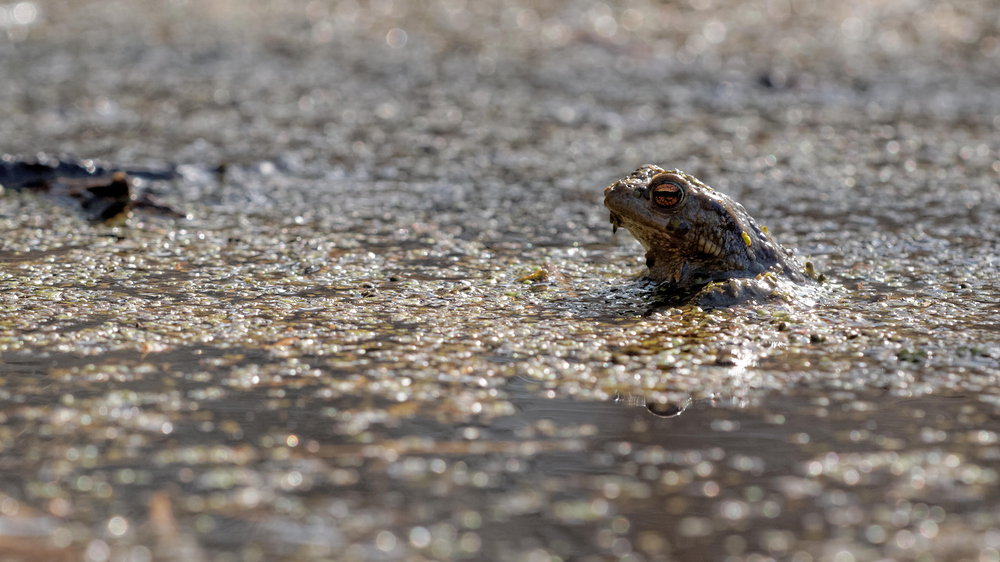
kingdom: Animalia
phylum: Chordata
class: Amphibia
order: Anura
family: Bufonidae
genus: Bufo
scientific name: Bufo bufo
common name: Common toad
